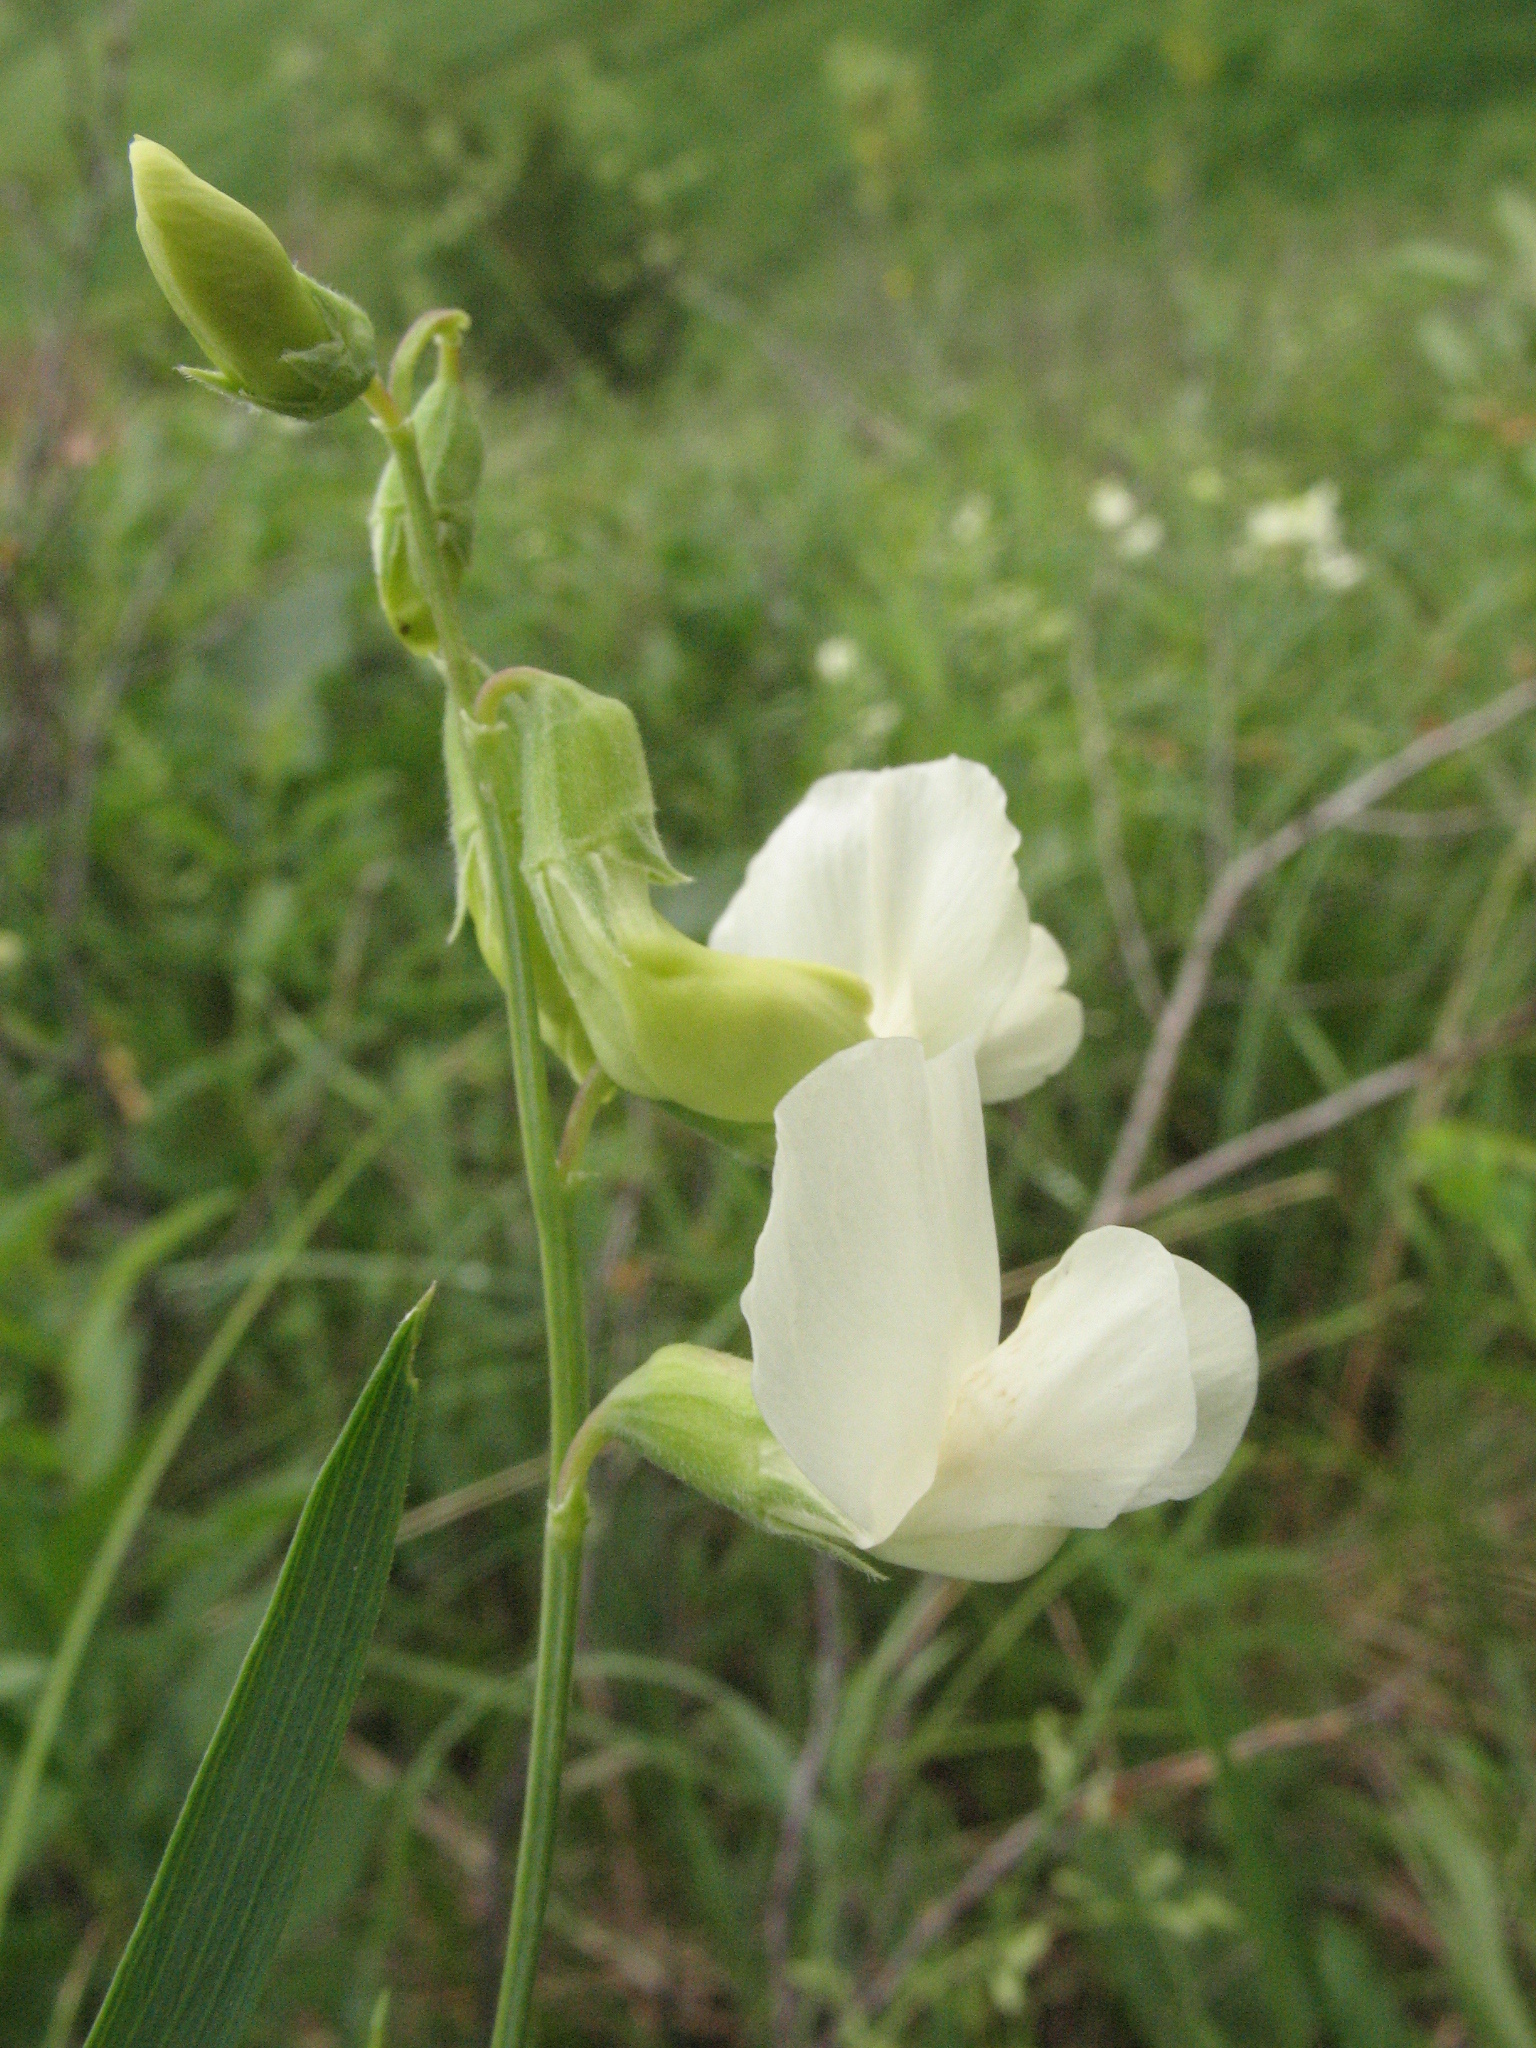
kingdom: Plantae
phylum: Tracheophyta
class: Magnoliopsida
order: Fabales
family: Fabaceae
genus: Lathyrus
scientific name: Lathyrus pallescens
